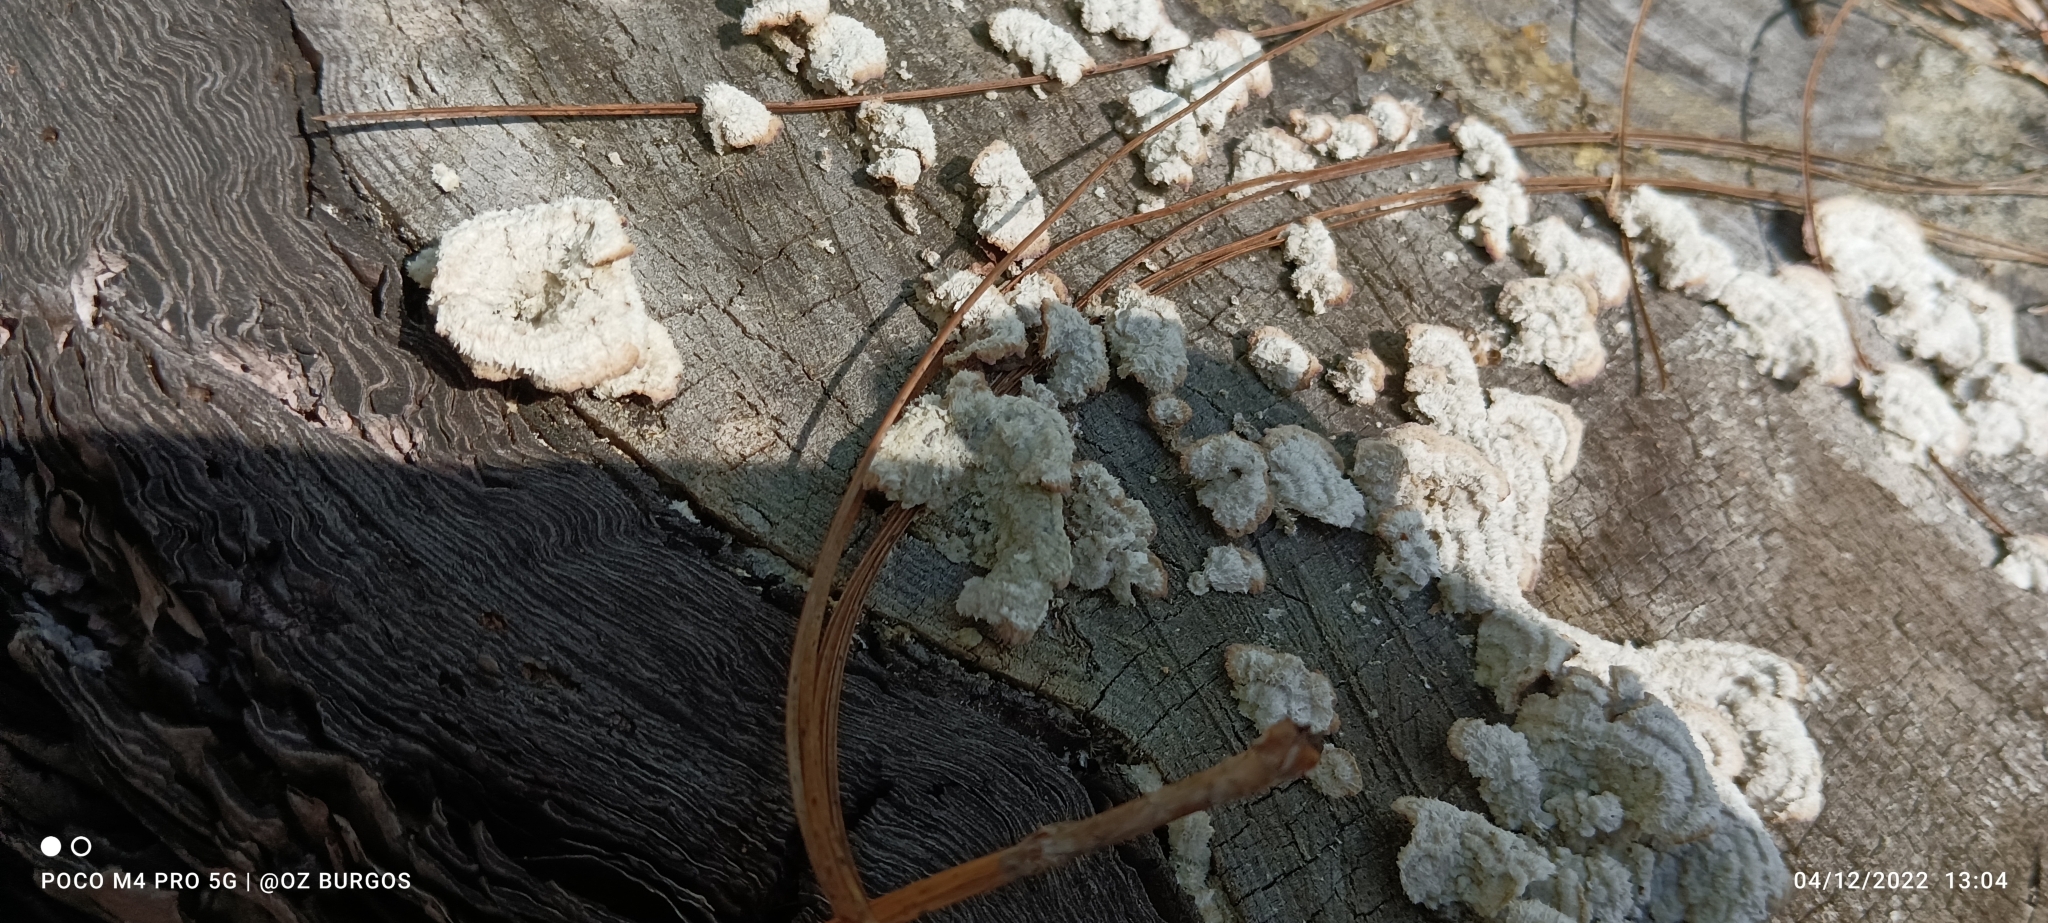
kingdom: Fungi
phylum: Basidiomycota
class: Agaricomycetes
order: Polyporales
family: Polyporaceae
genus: Trametes
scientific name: Trametes hirsuta
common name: Hairy bracket
